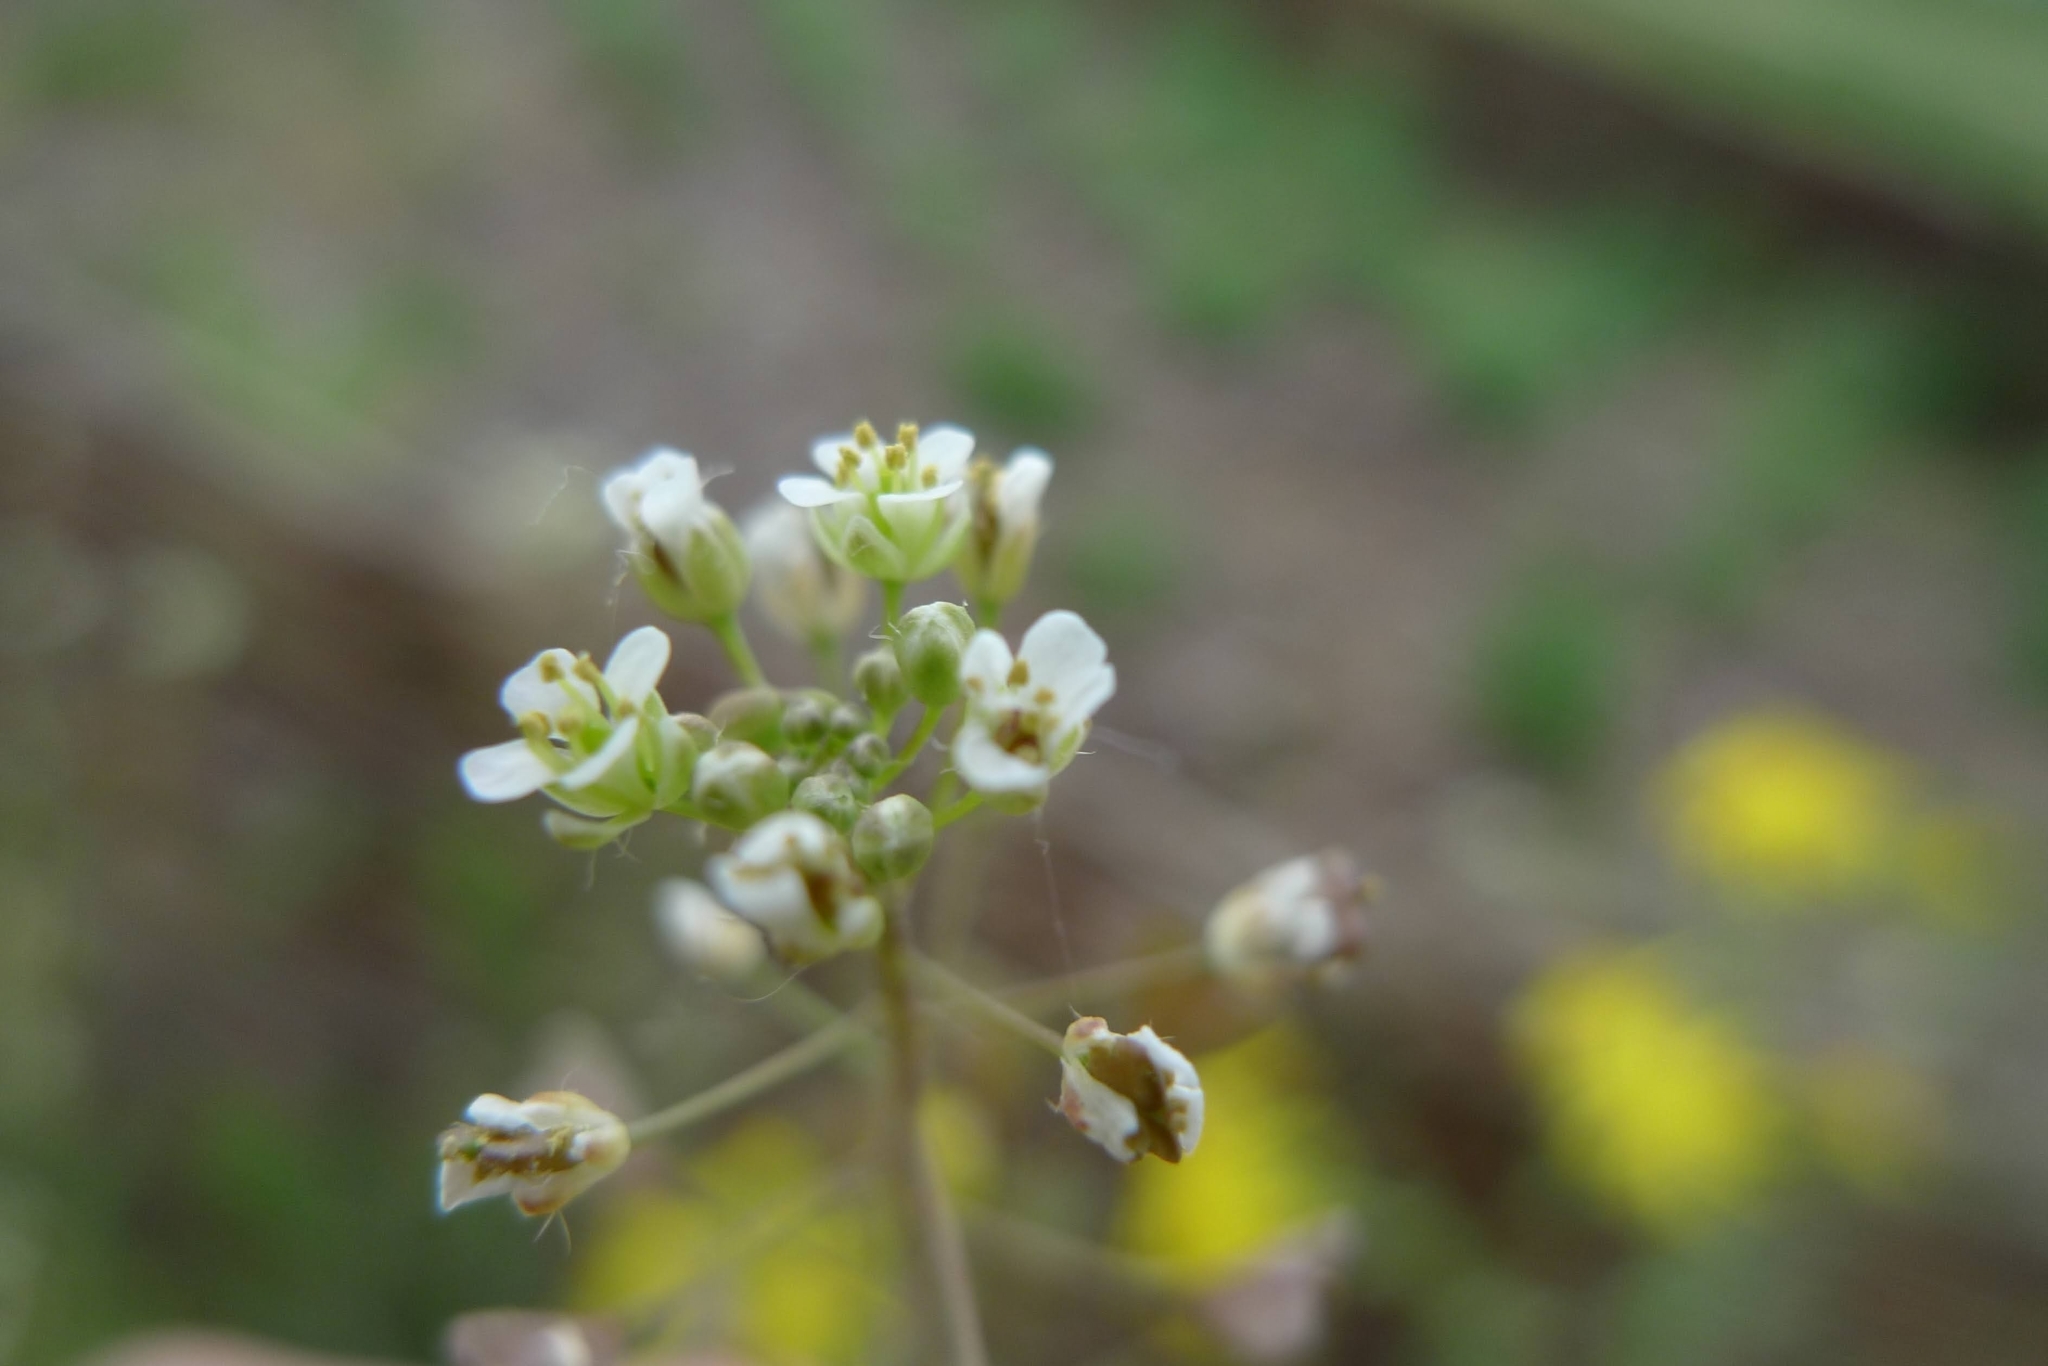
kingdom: Plantae
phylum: Tracheophyta
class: Magnoliopsida
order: Brassicales
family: Brassicaceae
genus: Capsella
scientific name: Capsella bursa-pastoris
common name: Shepherd's purse
